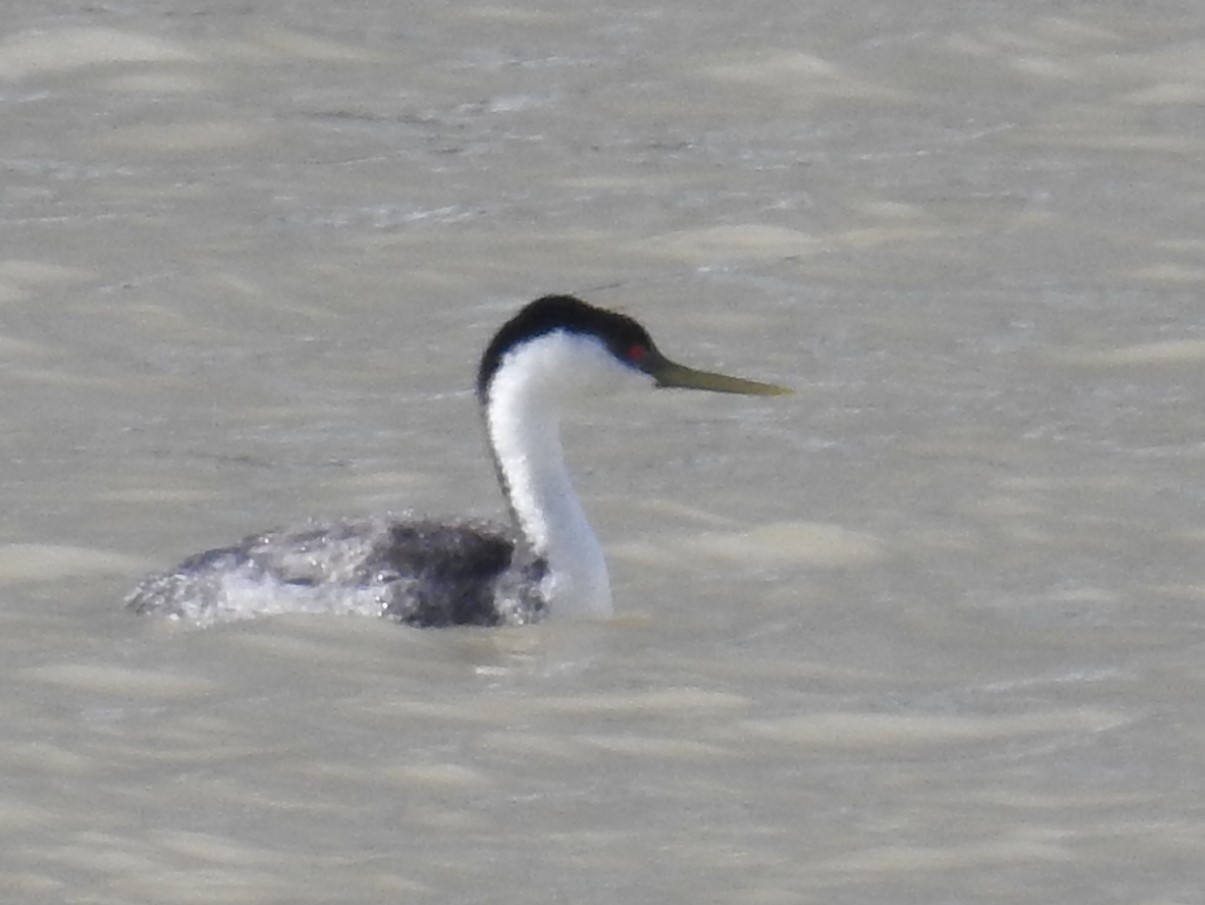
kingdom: Animalia
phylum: Chordata
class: Aves
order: Podicipediformes
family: Podicipedidae
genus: Aechmophorus
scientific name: Aechmophorus occidentalis
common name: Western grebe
